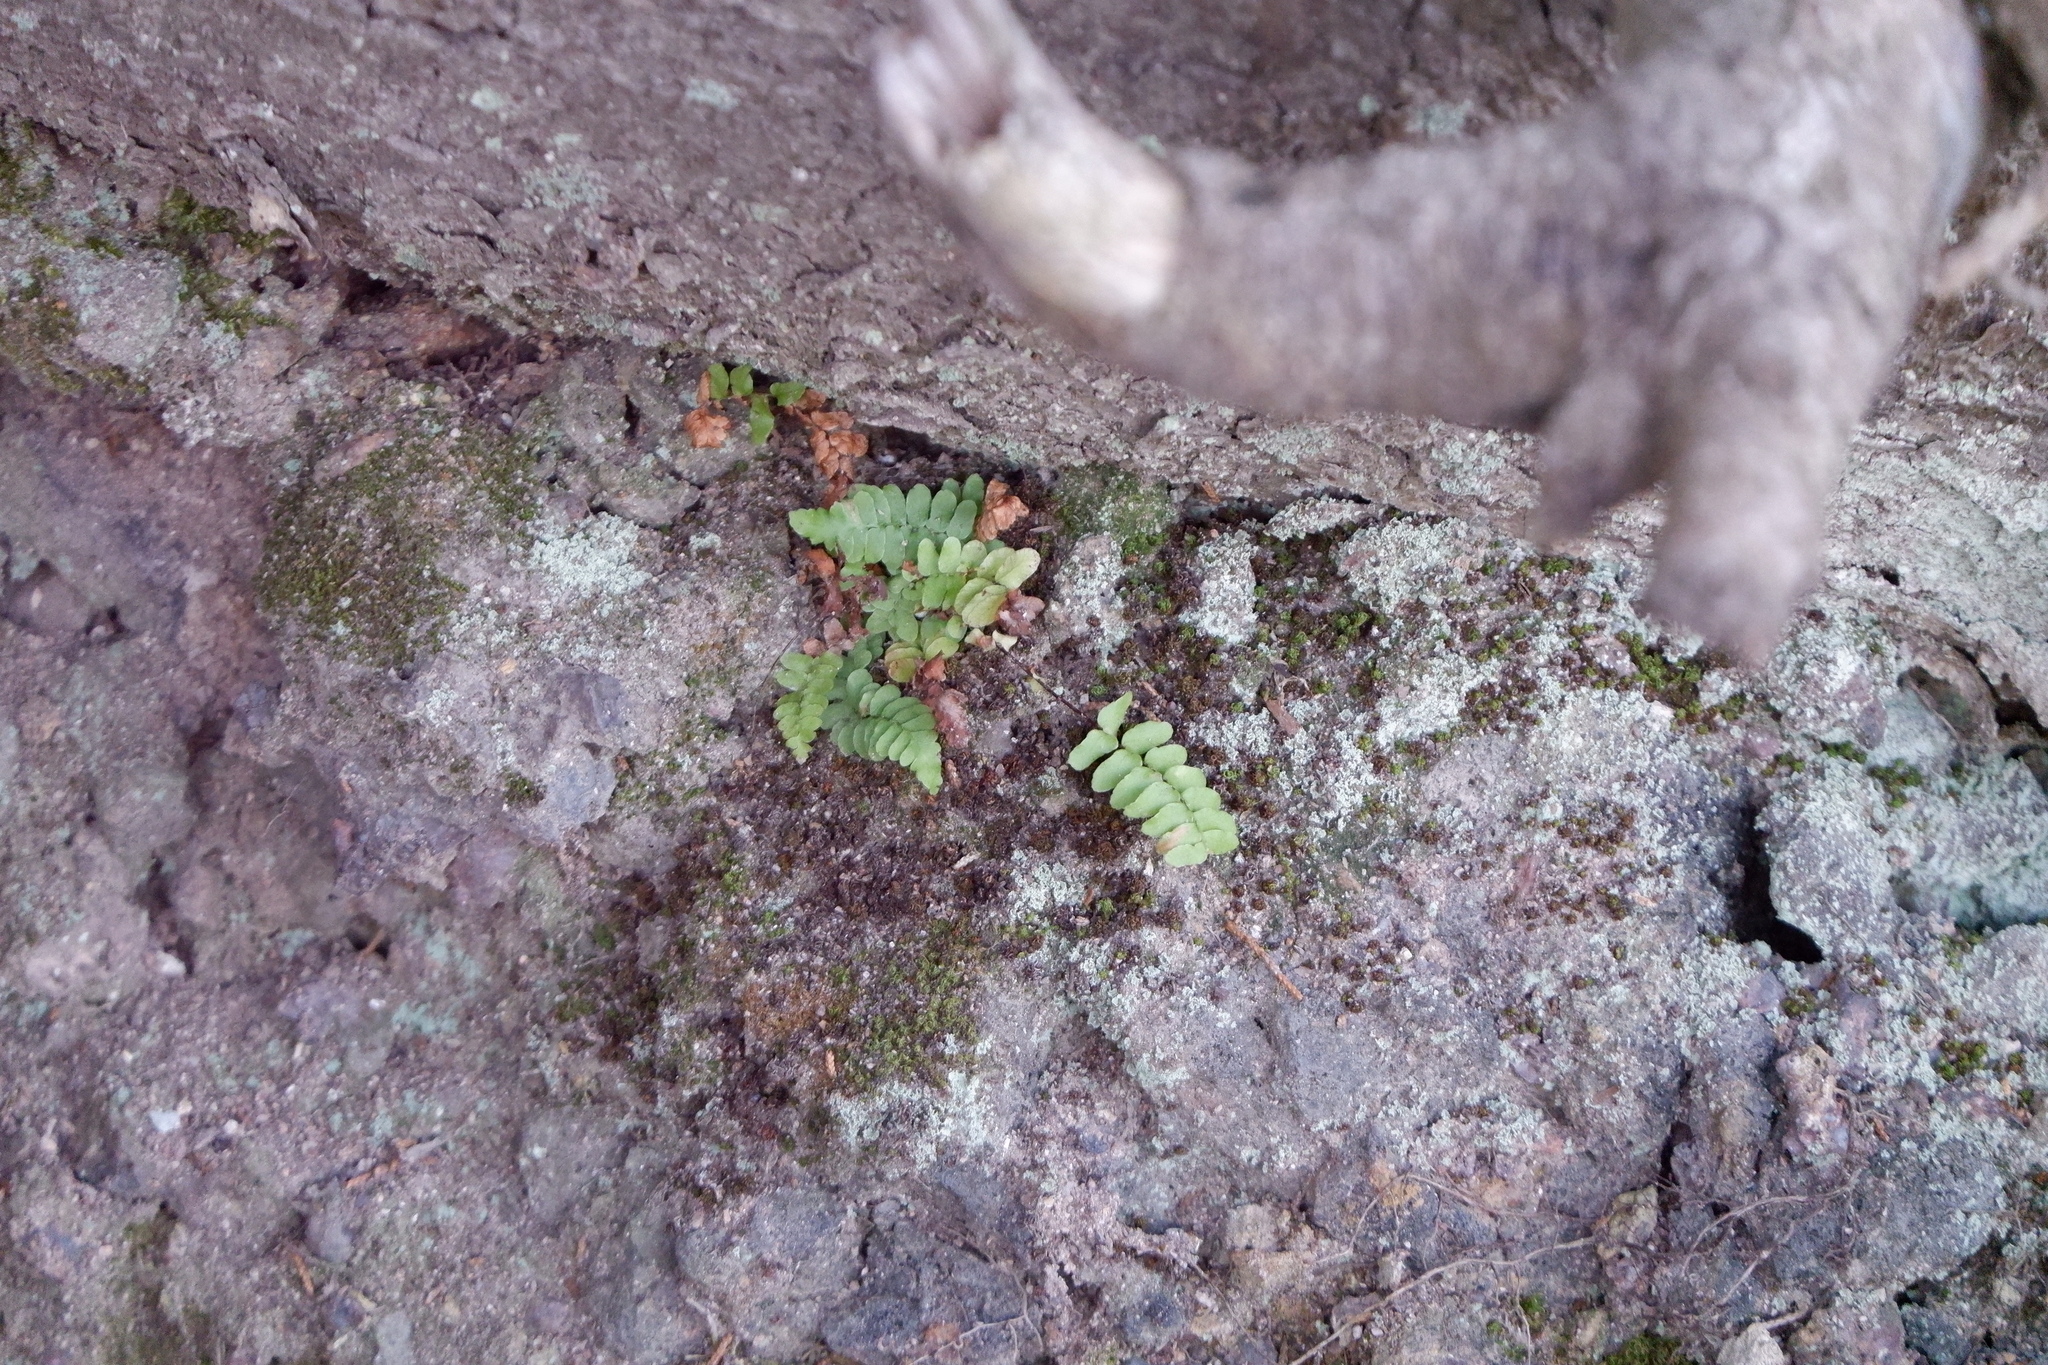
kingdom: Plantae
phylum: Tracheophyta
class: Polypodiopsida
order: Polypodiales
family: Aspleniaceae
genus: Asplenium
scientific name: Asplenium platyneuron
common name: Ebony spleenwort
